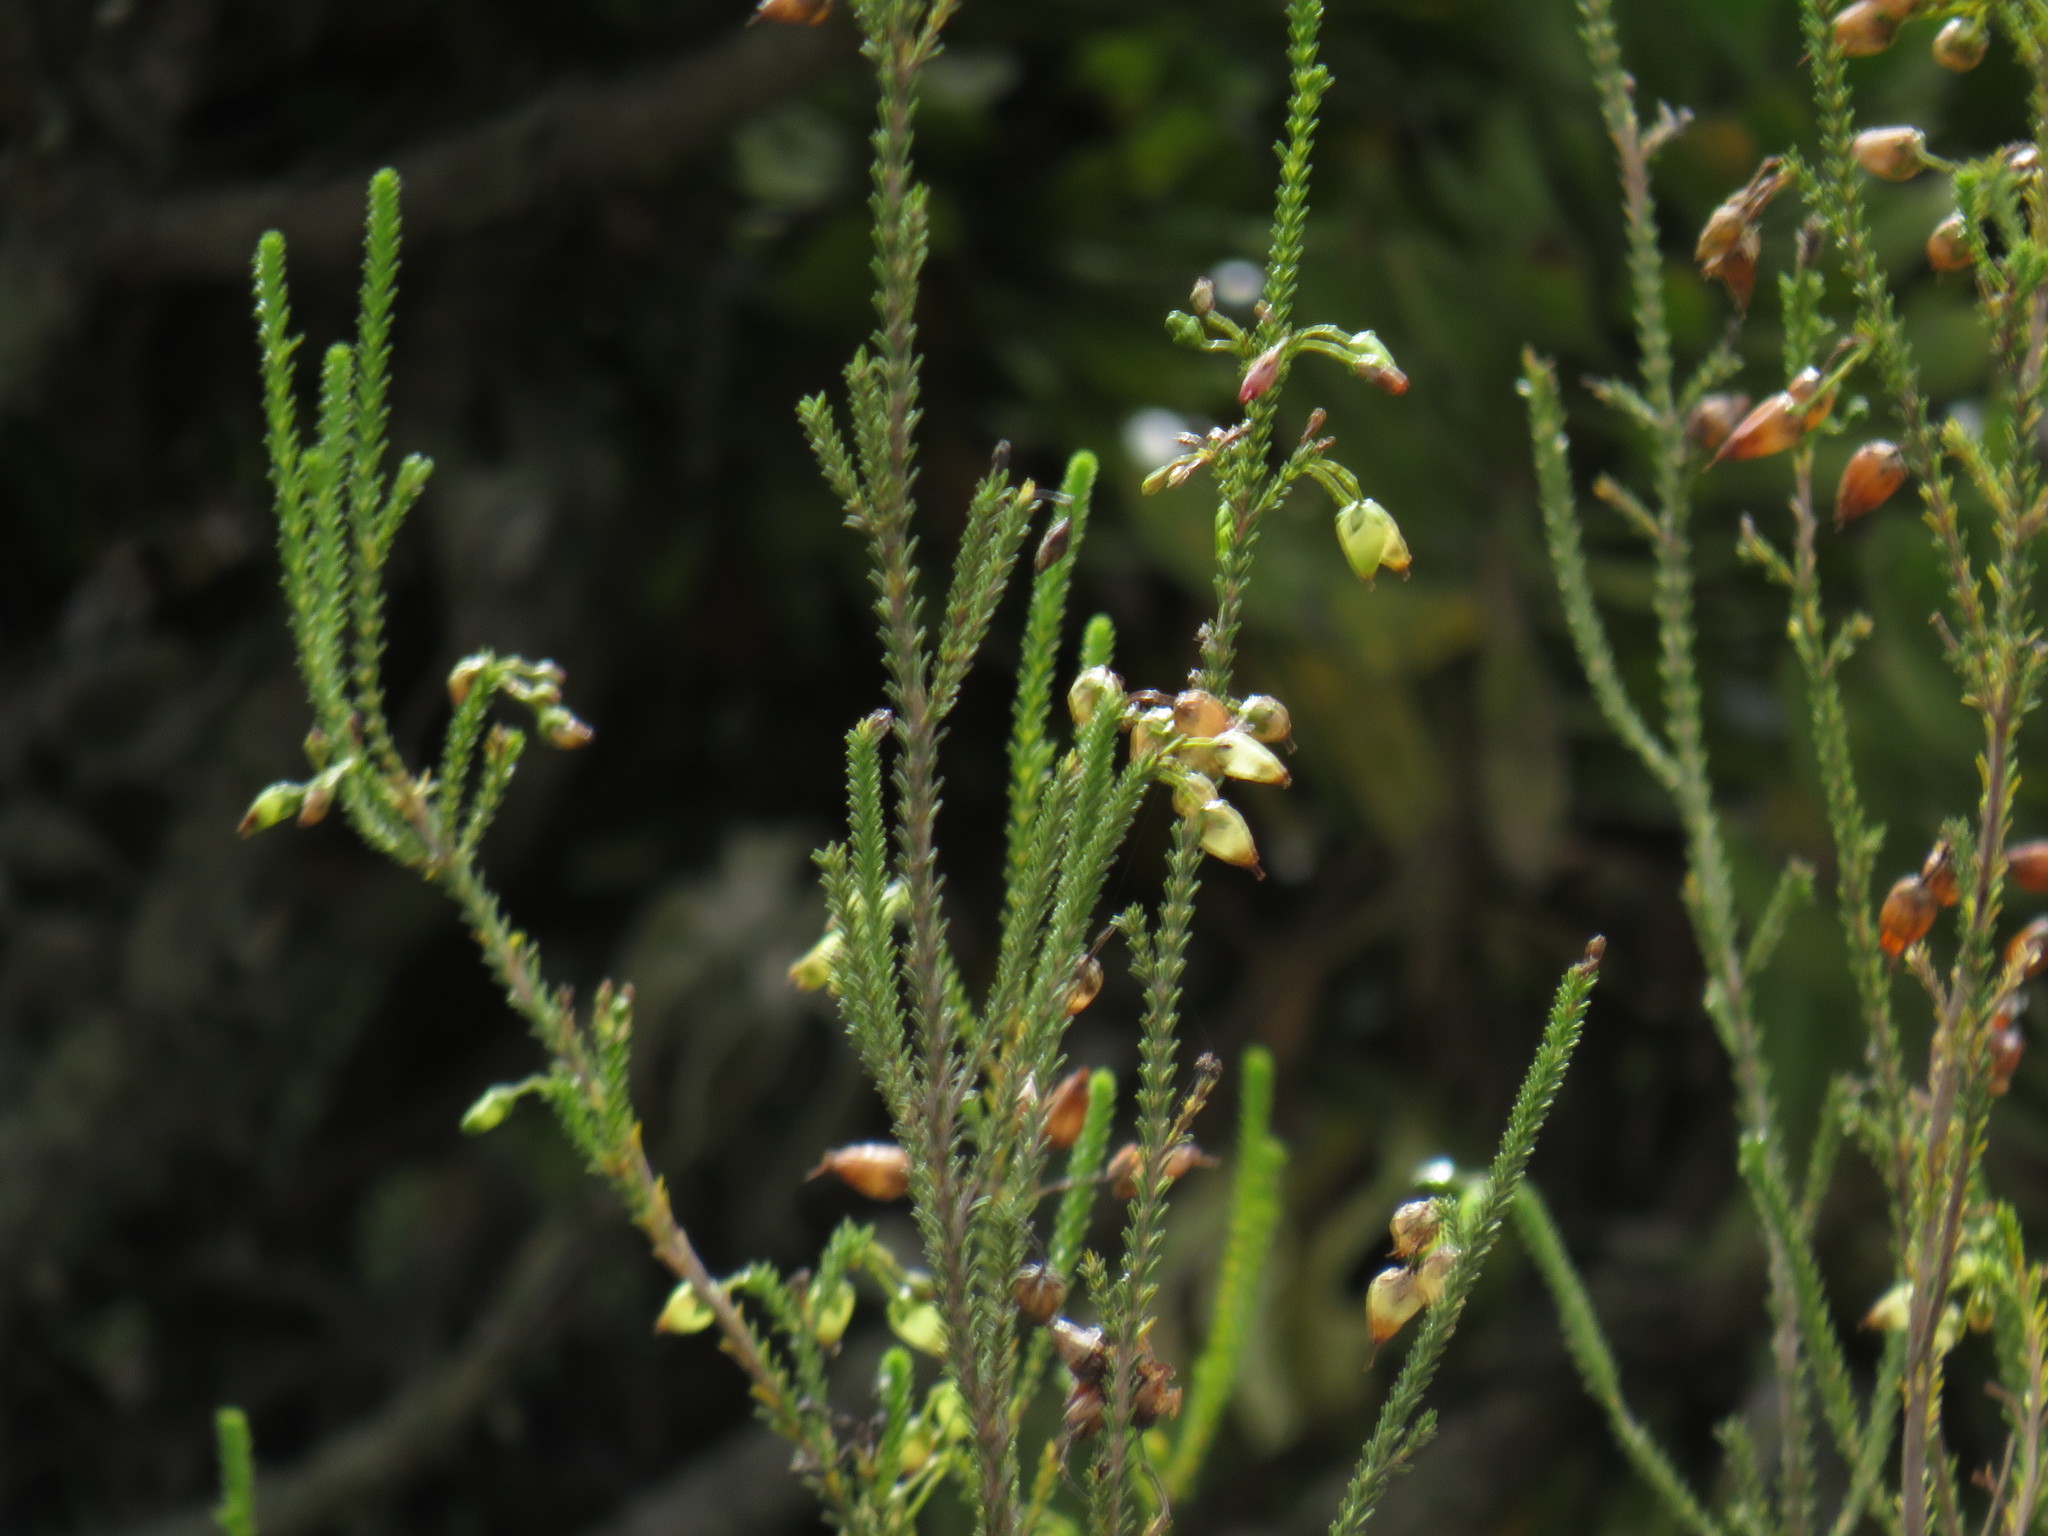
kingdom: Plantae
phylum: Tracheophyta
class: Magnoliopsida
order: Ericales
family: Ericaceae
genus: Erica
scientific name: Erica urna-viridis
